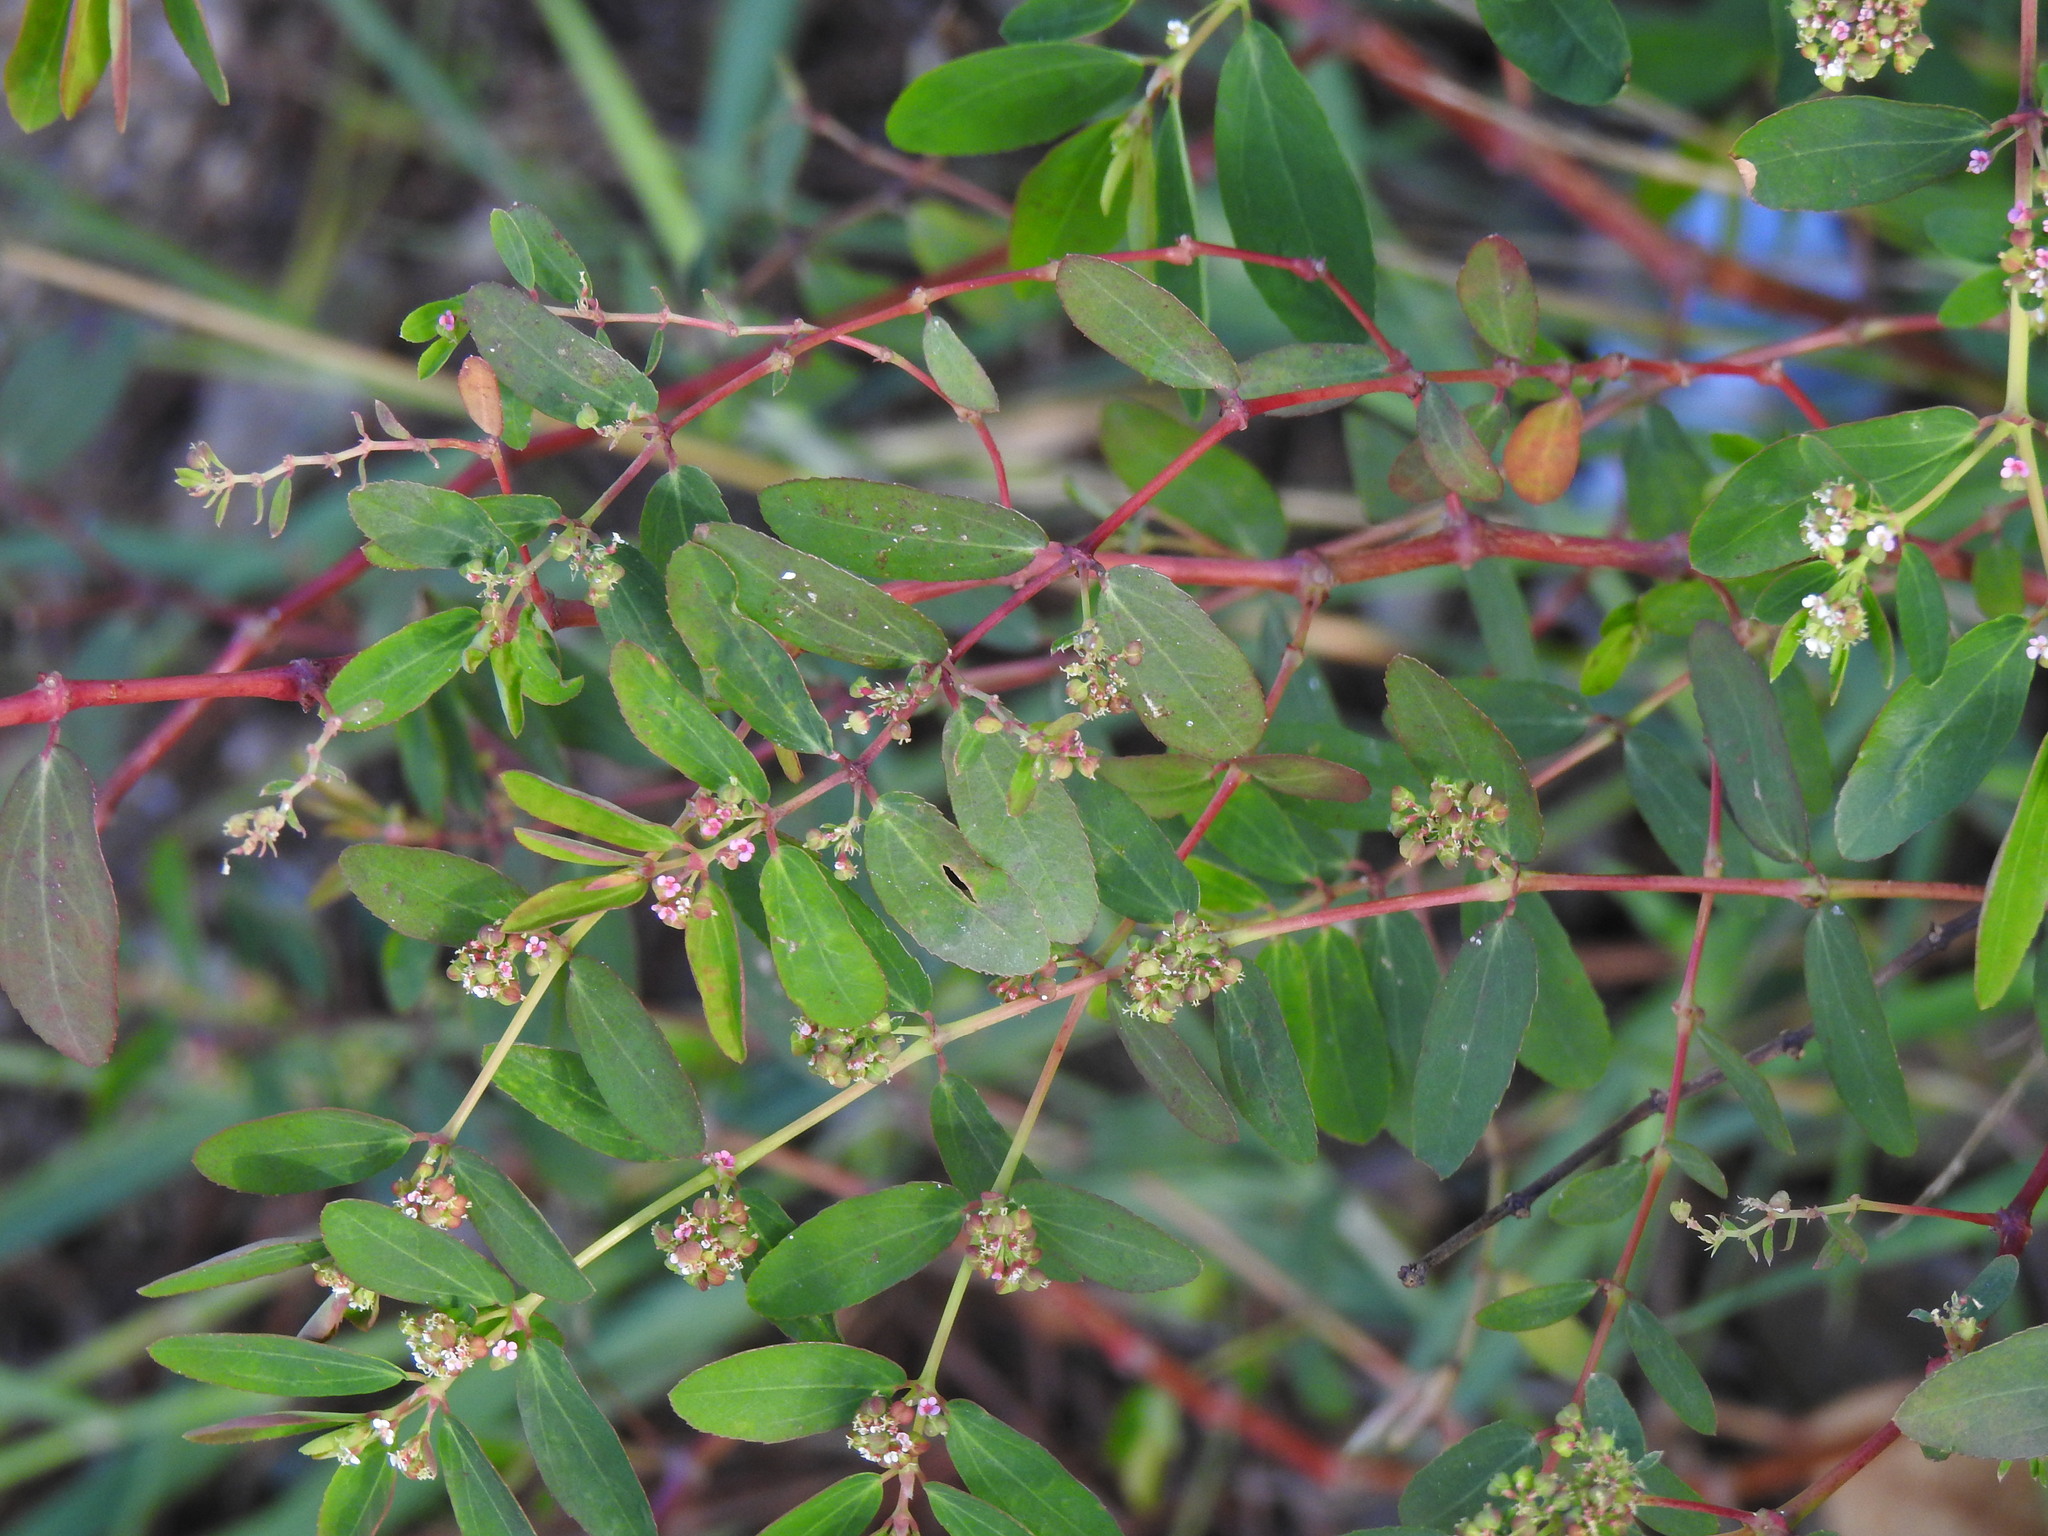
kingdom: Plantae
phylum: Tracheophyta
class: Magnoliopsida
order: Malpighiales
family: Euphorbiaceae
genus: Euphorbia
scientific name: Euphorbia hypericifolia
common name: Graceful sandmat
